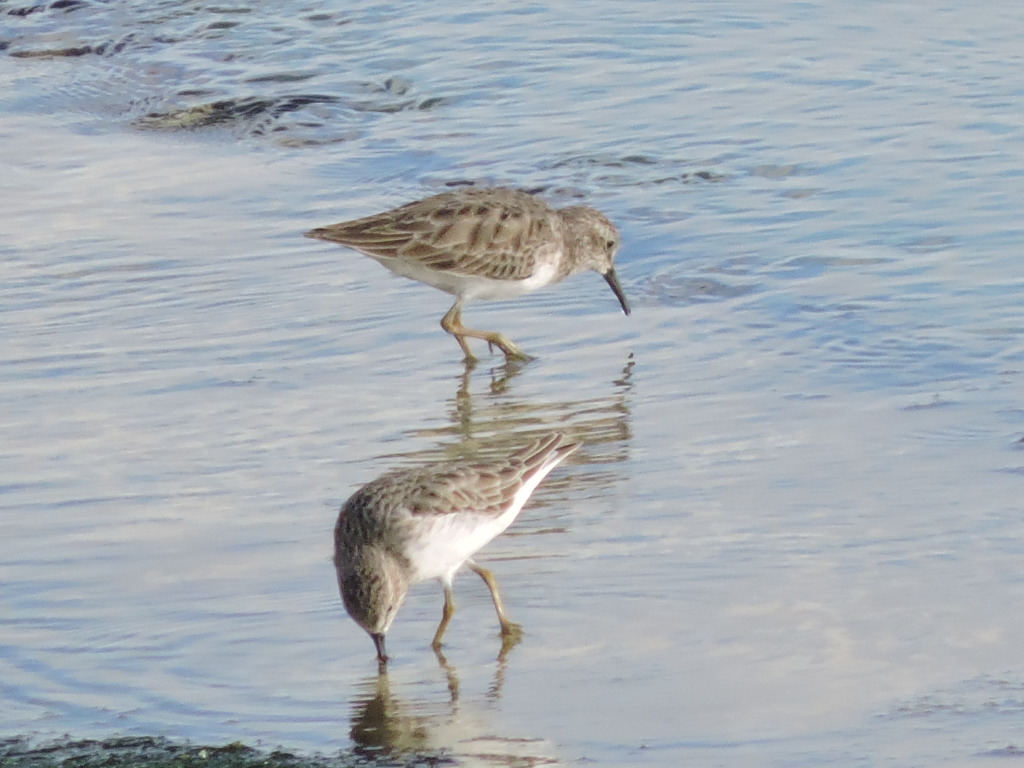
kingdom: Animalia
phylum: Chordata
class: Aves
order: Charadriiformes
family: Scolopacidae
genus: Calidris
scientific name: Calidris minutilla
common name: Least sandpiper
